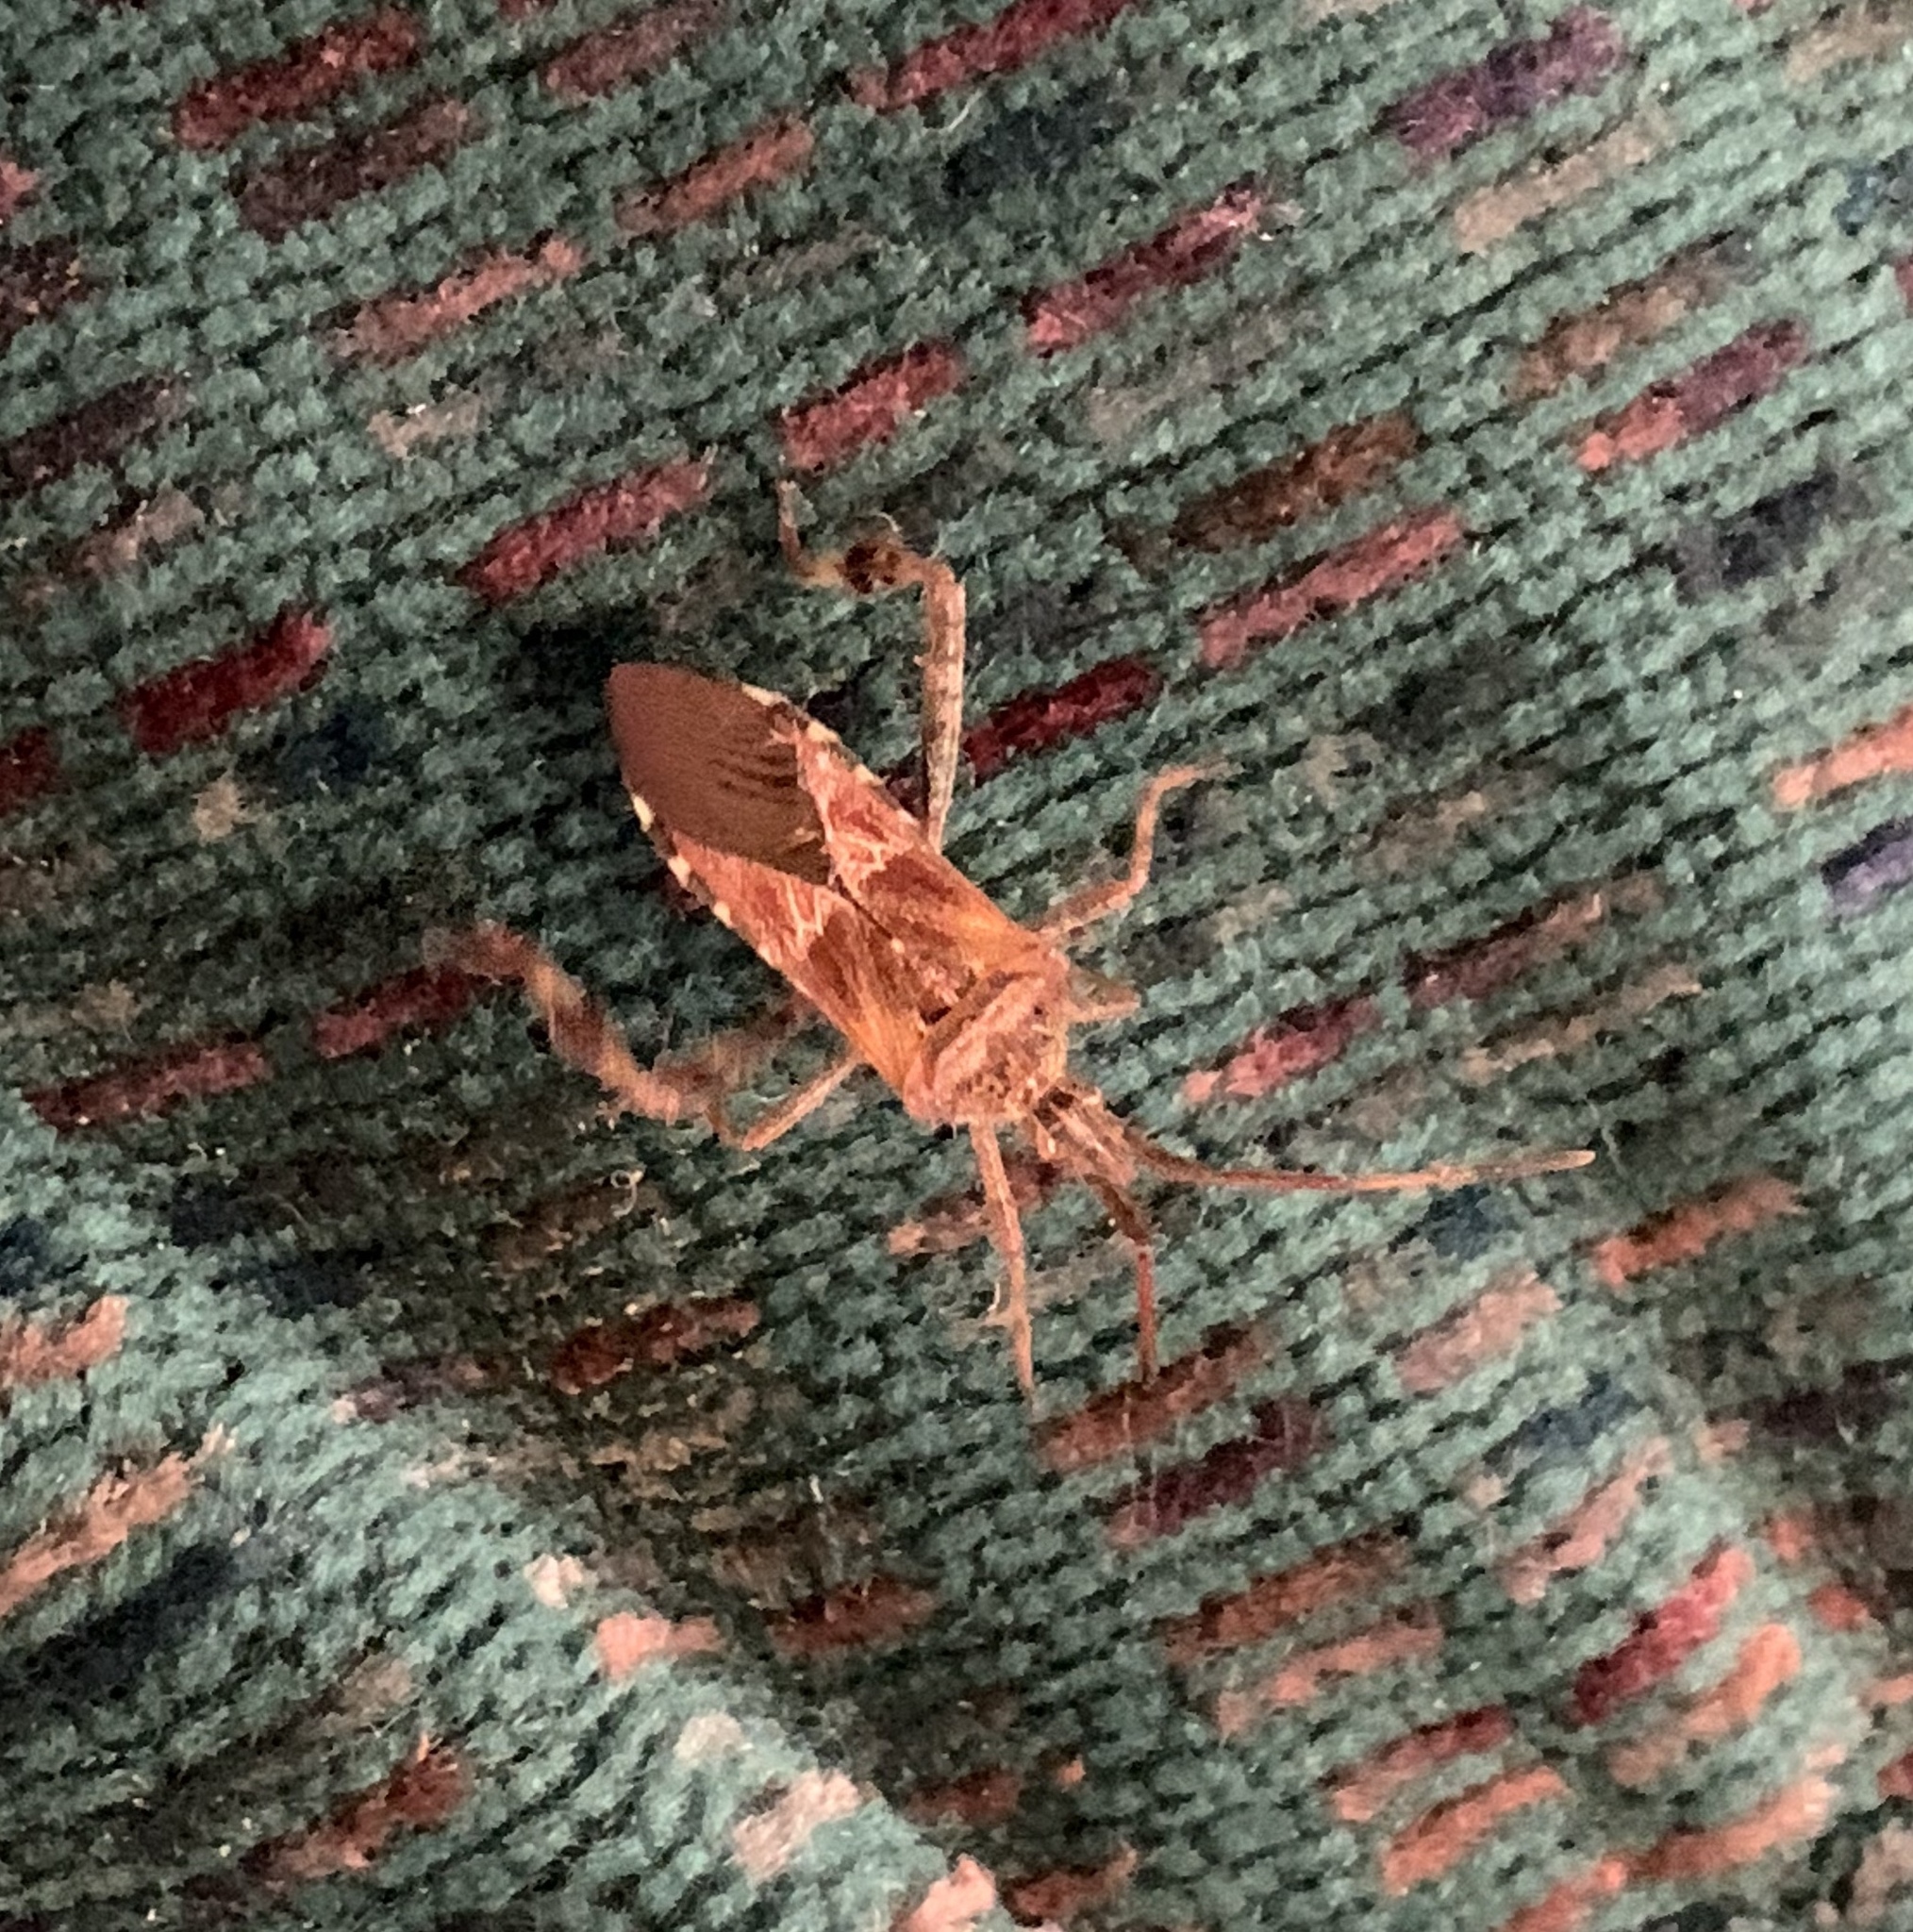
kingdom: Animalia
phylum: Arthropoda
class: Insecta
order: Hemiptera
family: Coreidae
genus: Leptoglossus
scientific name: Leptoglossus occidentalis
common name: Western conifer-seed bug
